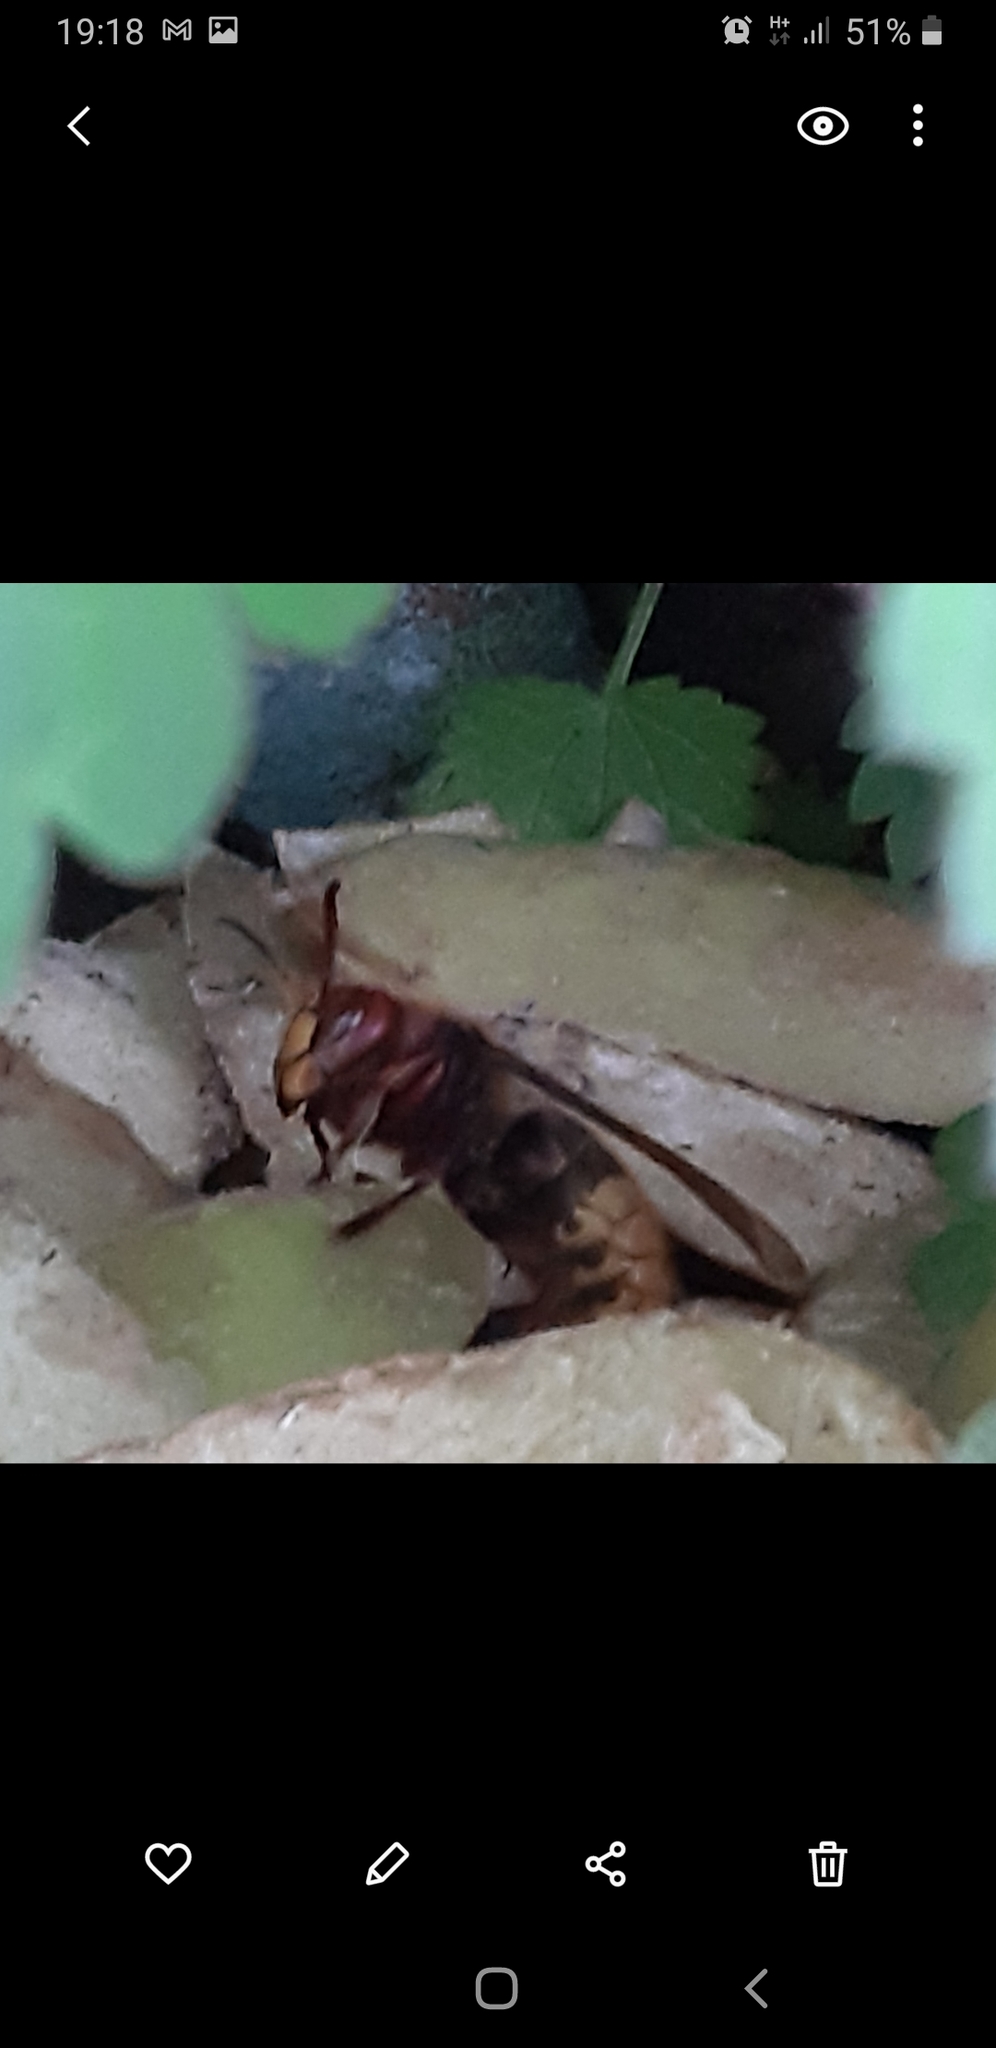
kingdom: Animalia
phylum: Arthropoda
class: Insecta
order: Hymenoptera
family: Vespidae
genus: Vespa
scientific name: Vespa crabro
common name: Hornet
